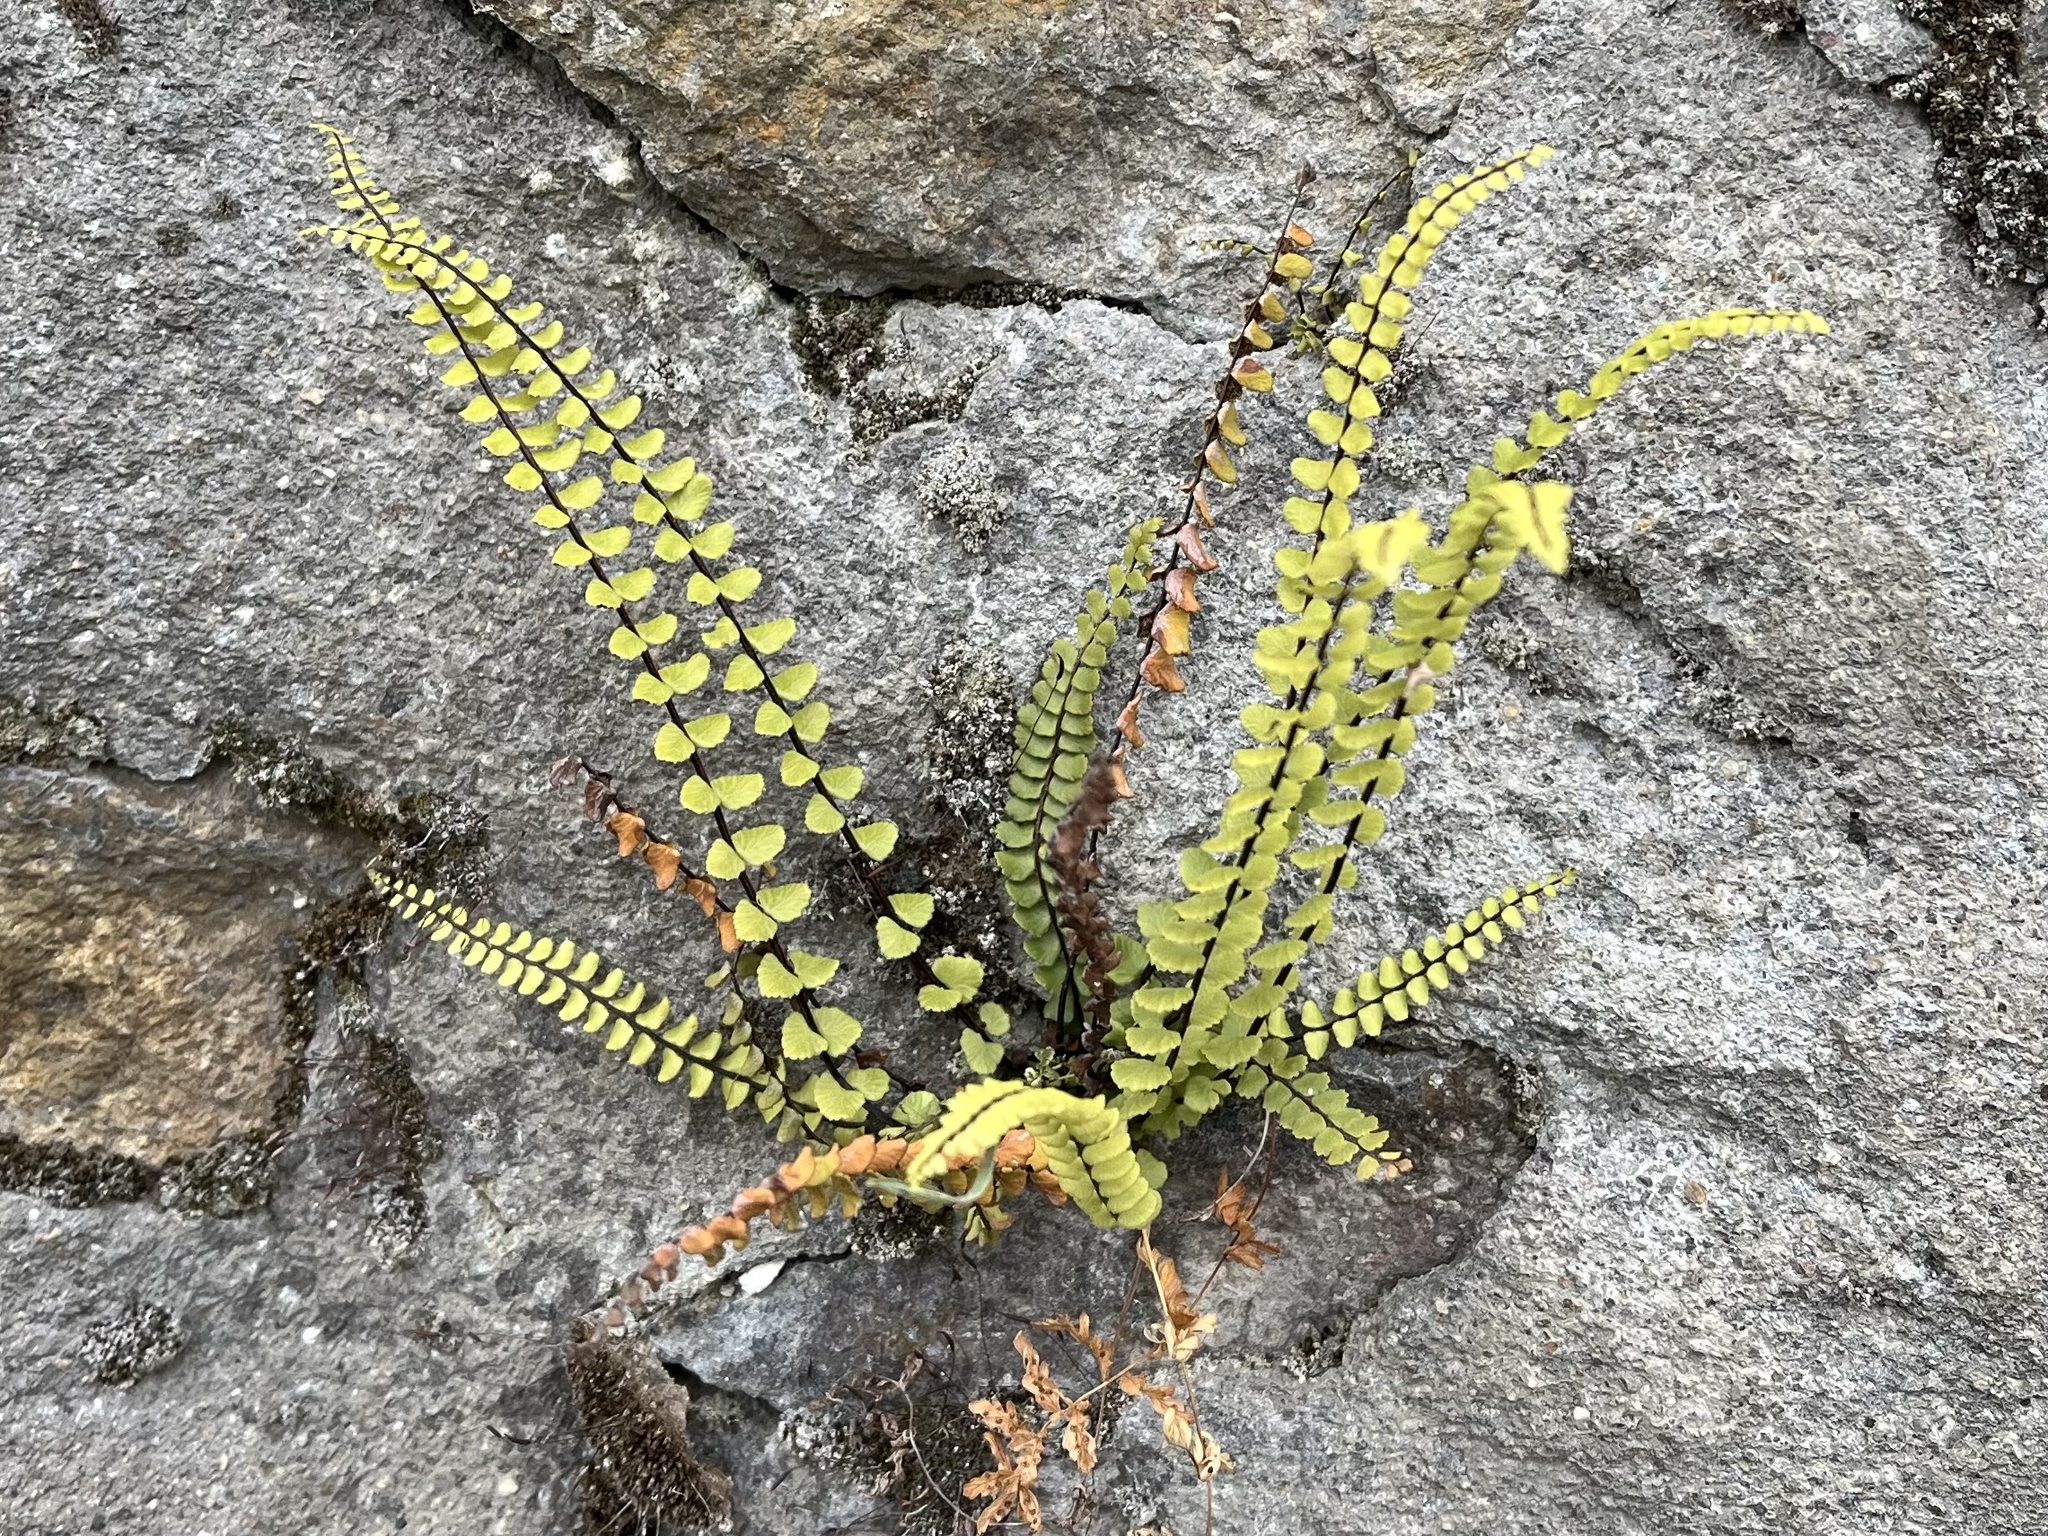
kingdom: Plantae
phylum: Tracheophyta
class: Polypodiopsida
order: Polypodiales
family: Aspleniaceae
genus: Asplenium
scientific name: Asplenium trichomanes
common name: Maidenhair spleenwort
